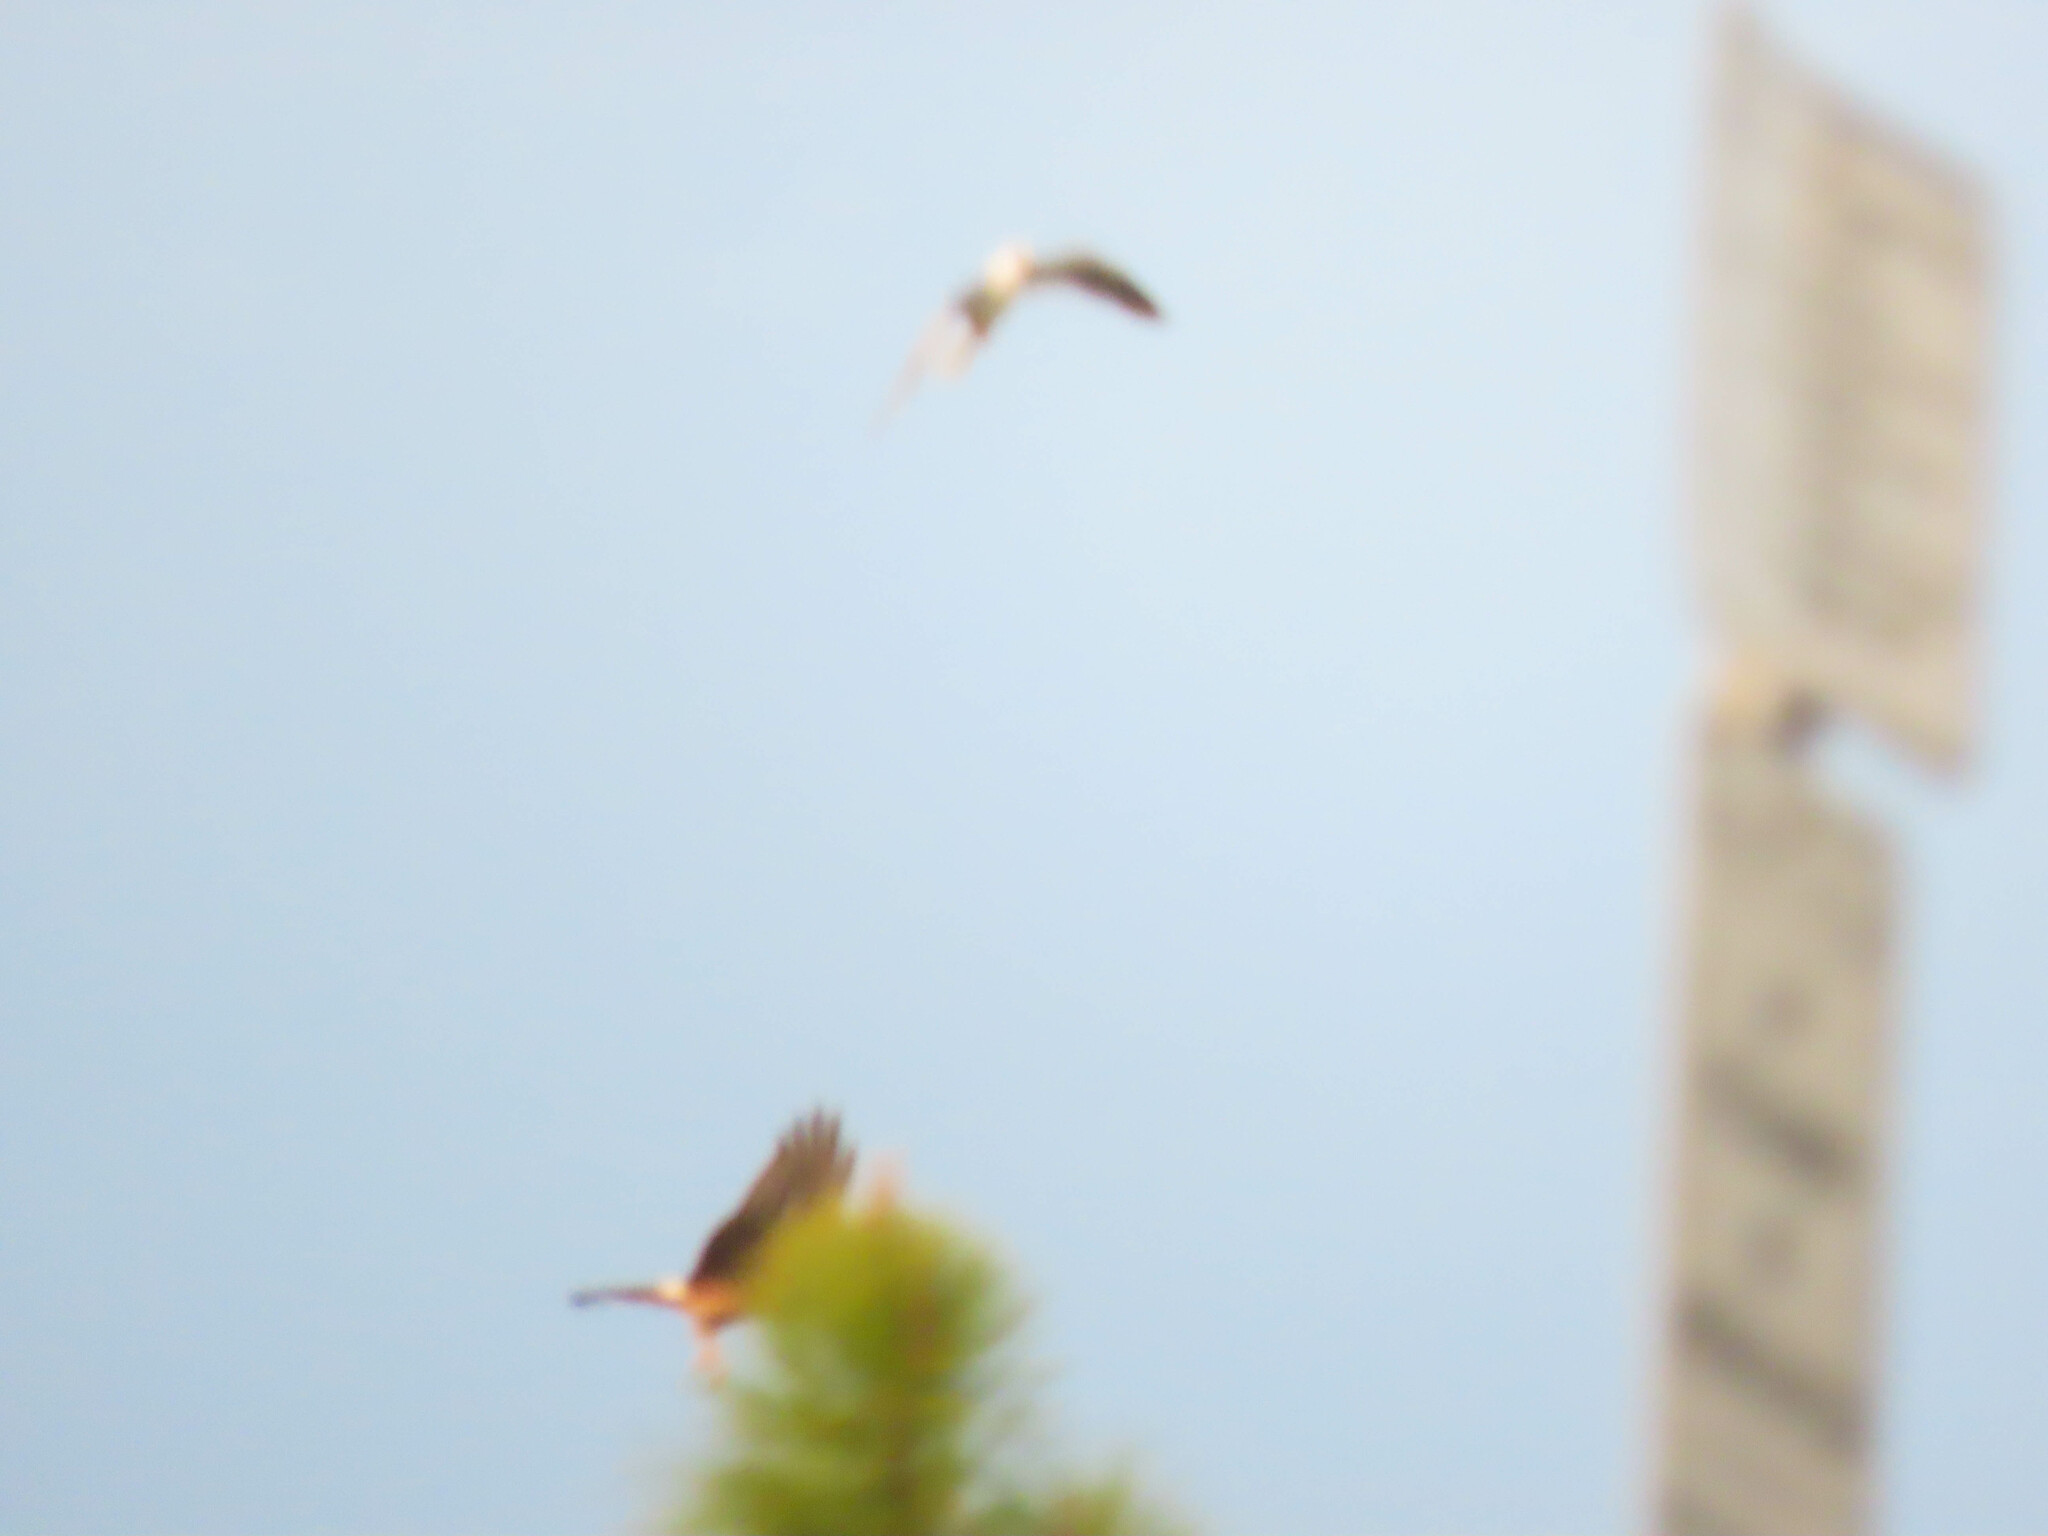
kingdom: Animalia
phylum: Chordata
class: Aves
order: Accipitriformes
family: Accipitridae
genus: Circus
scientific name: Circus cyaneus
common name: Hen harrier
